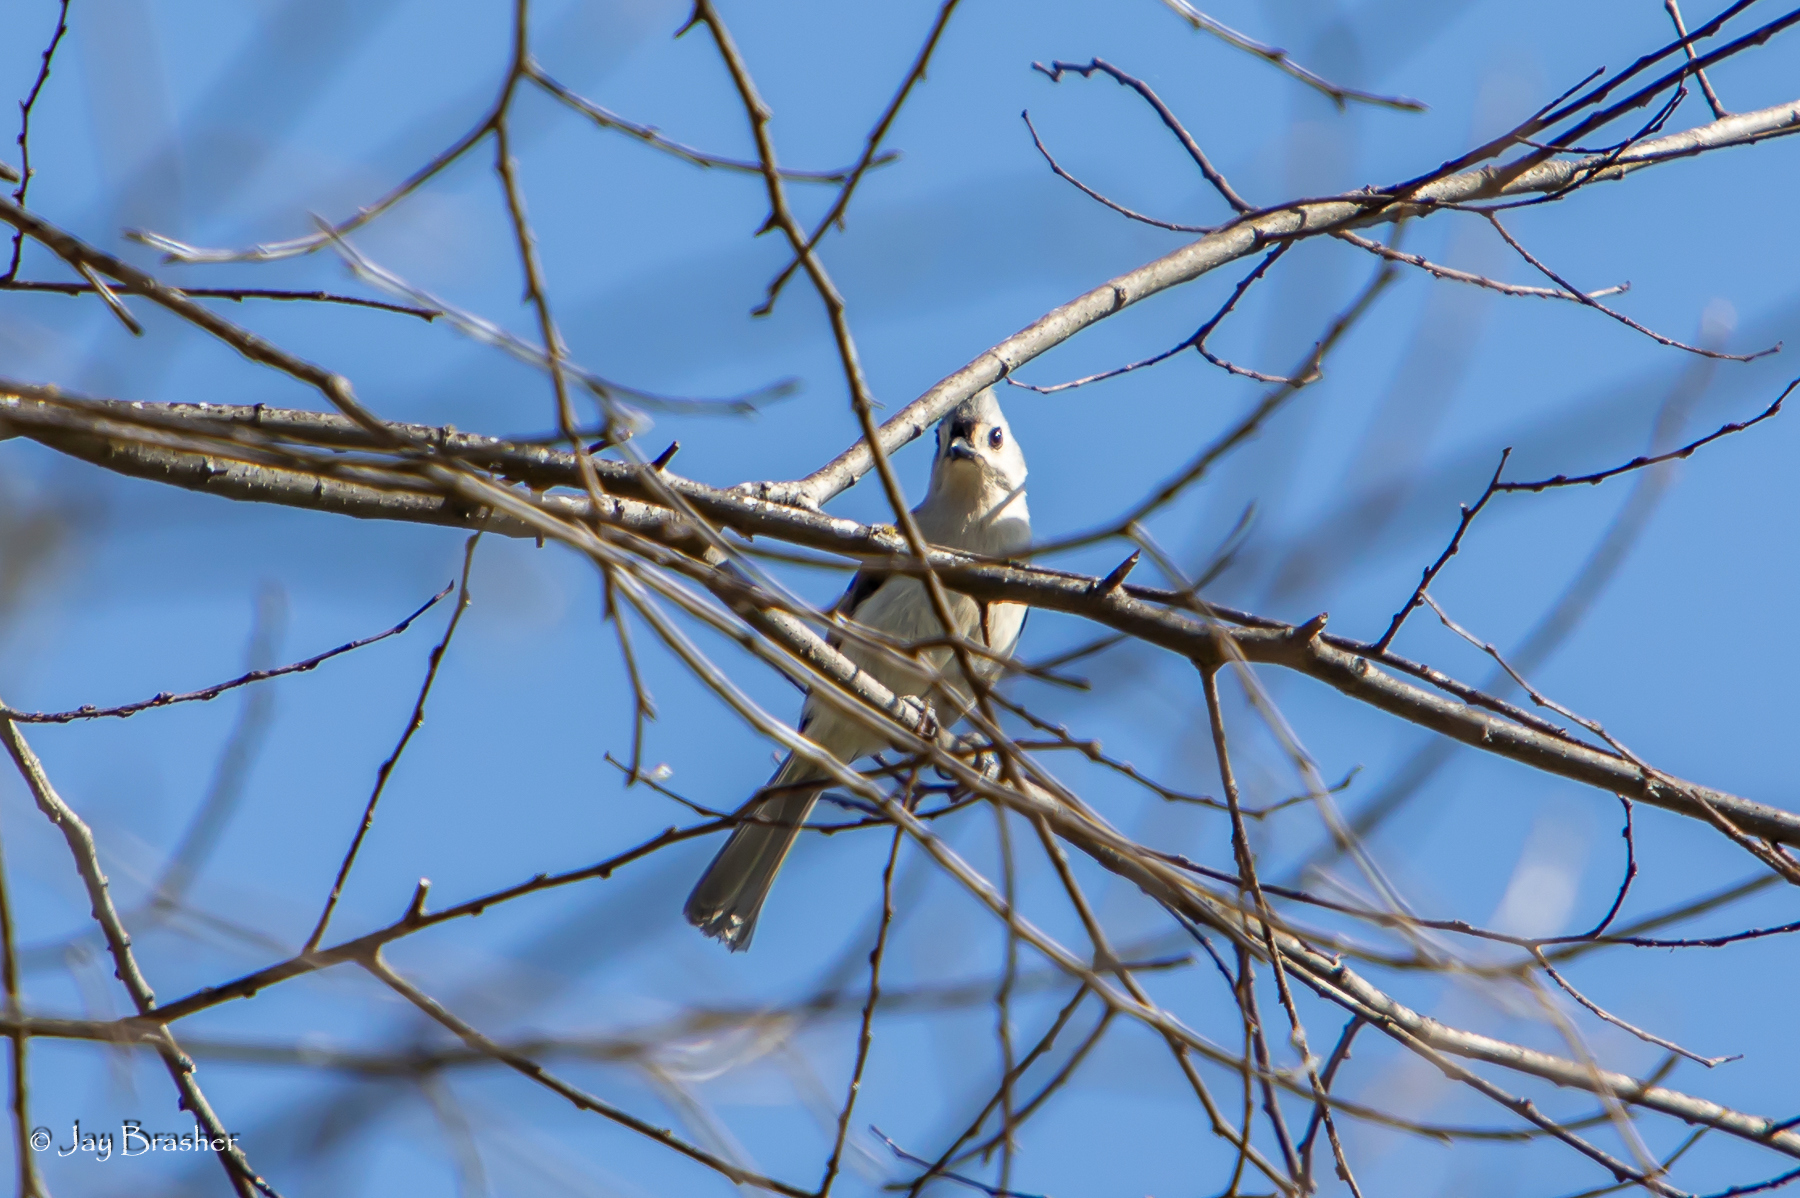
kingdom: Animalia
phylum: Chordata
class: Aves
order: Passeriformes
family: Paridae
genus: Baeolophus
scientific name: Baeolophus bicolor
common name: Tufted titmouse
